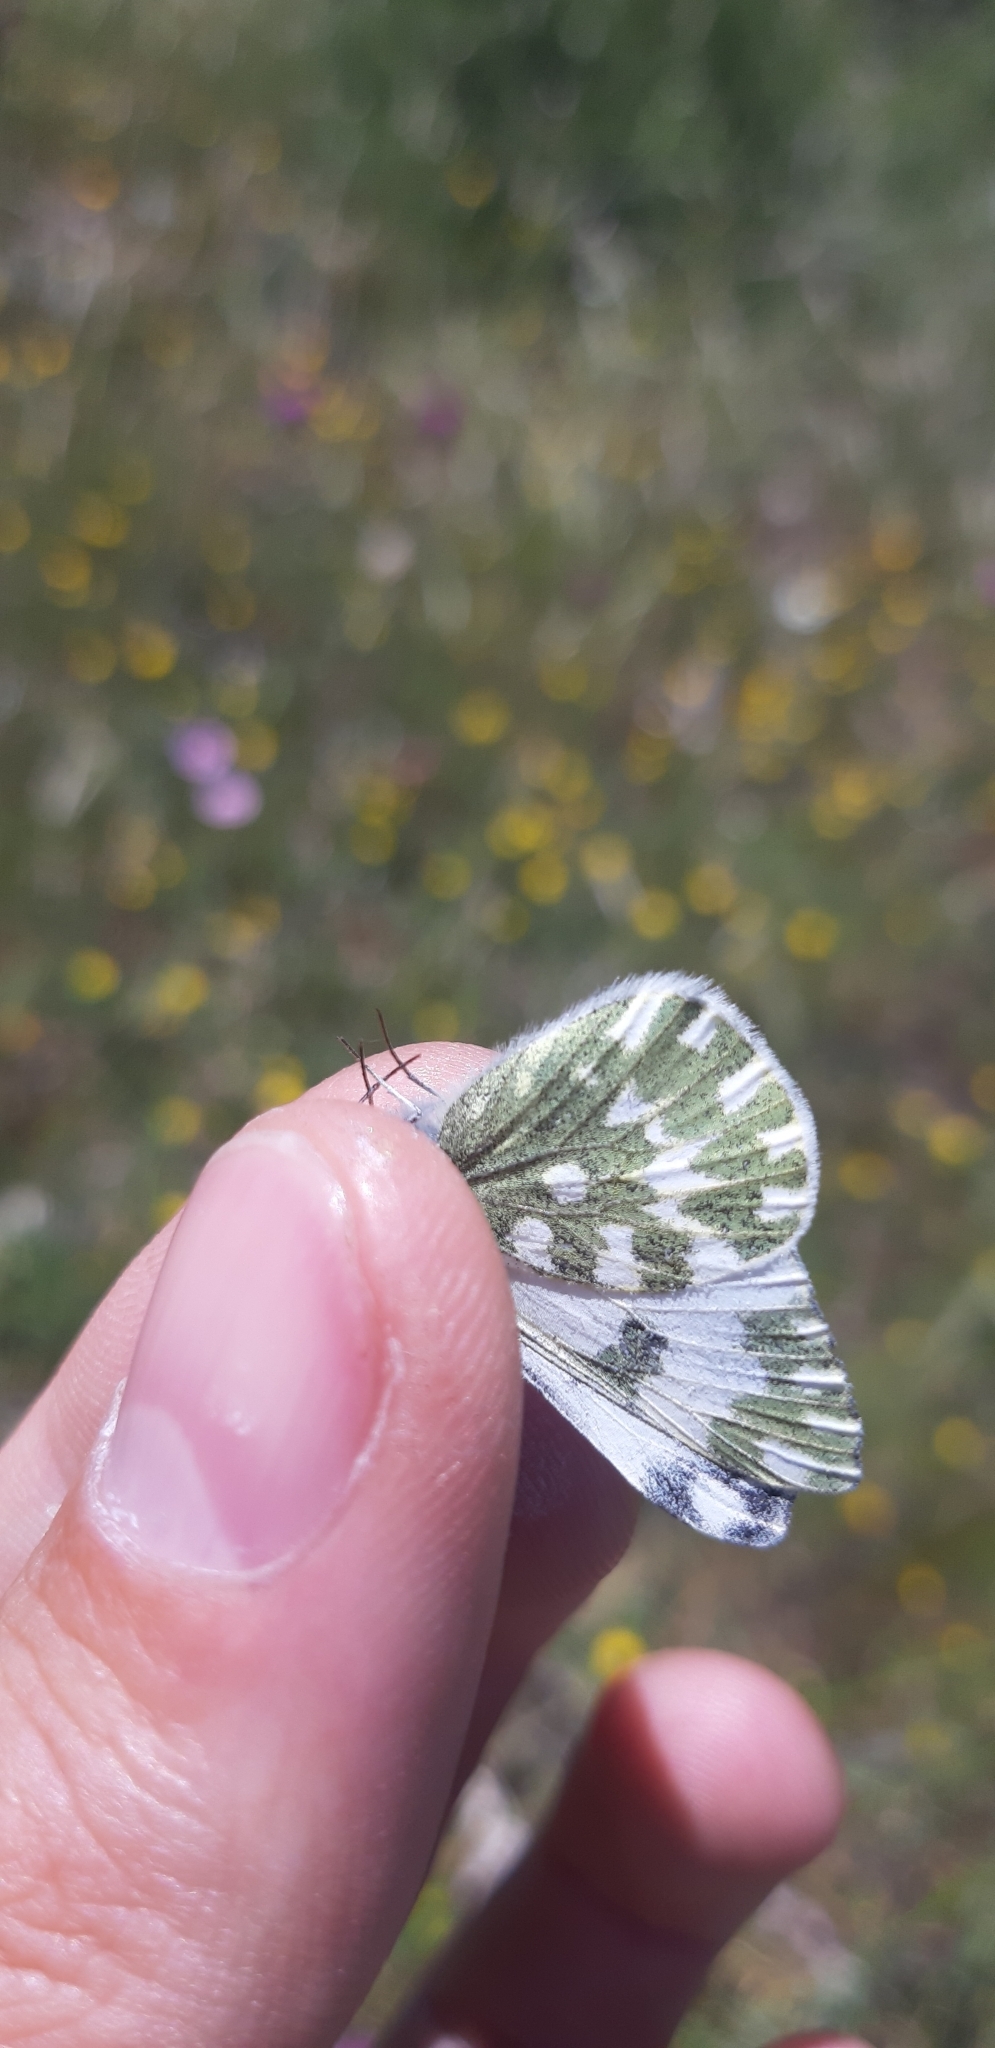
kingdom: Animalia
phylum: Arthropoda
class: Insecta
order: Lepidoptera
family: Pieridae
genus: Pontia
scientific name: Pontia edusa
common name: Eastern bath white
